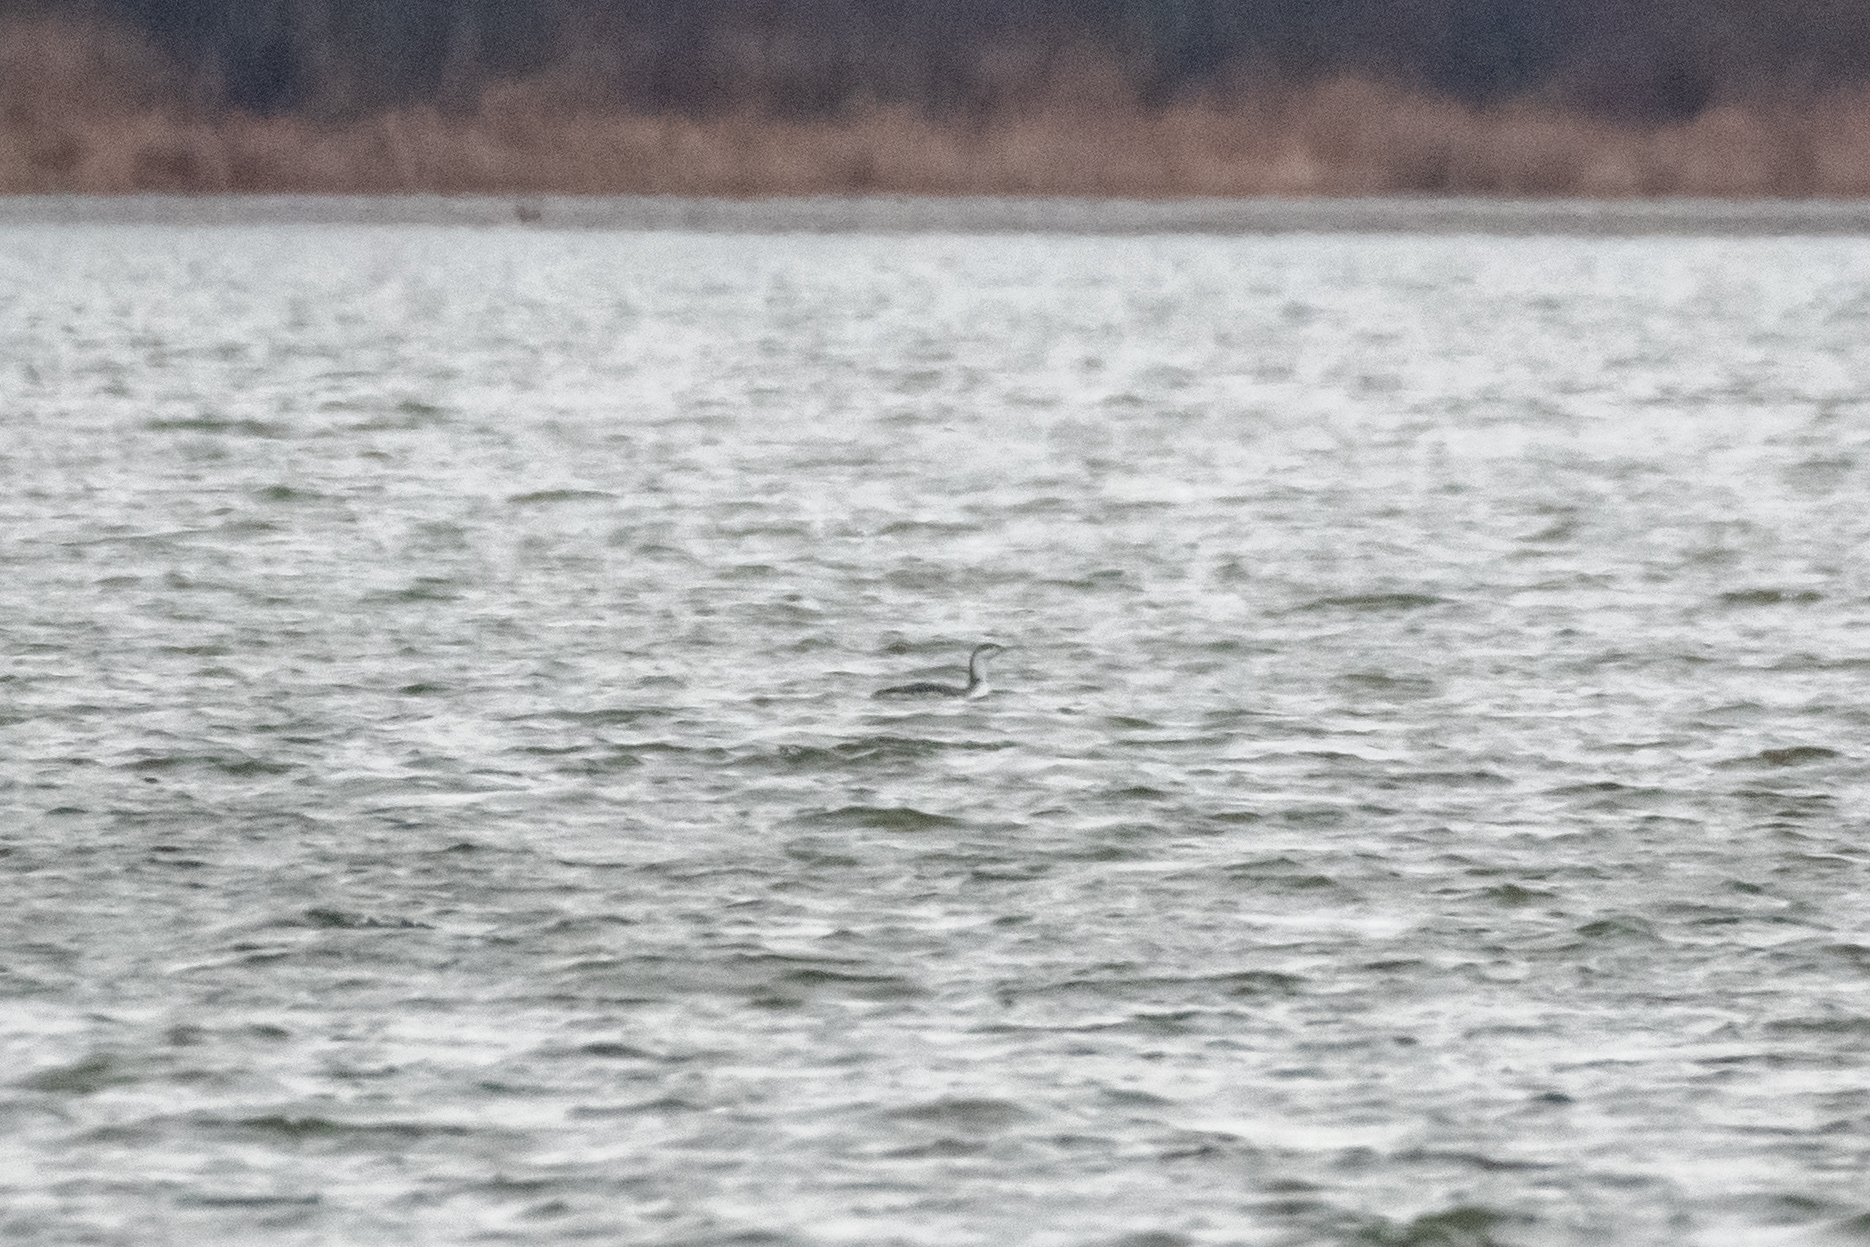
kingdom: Animalia
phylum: Chordata
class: Aves
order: Gaviiformes
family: Gaviidae
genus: Gavia
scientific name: Gavia stellata
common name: Red-throated loon
